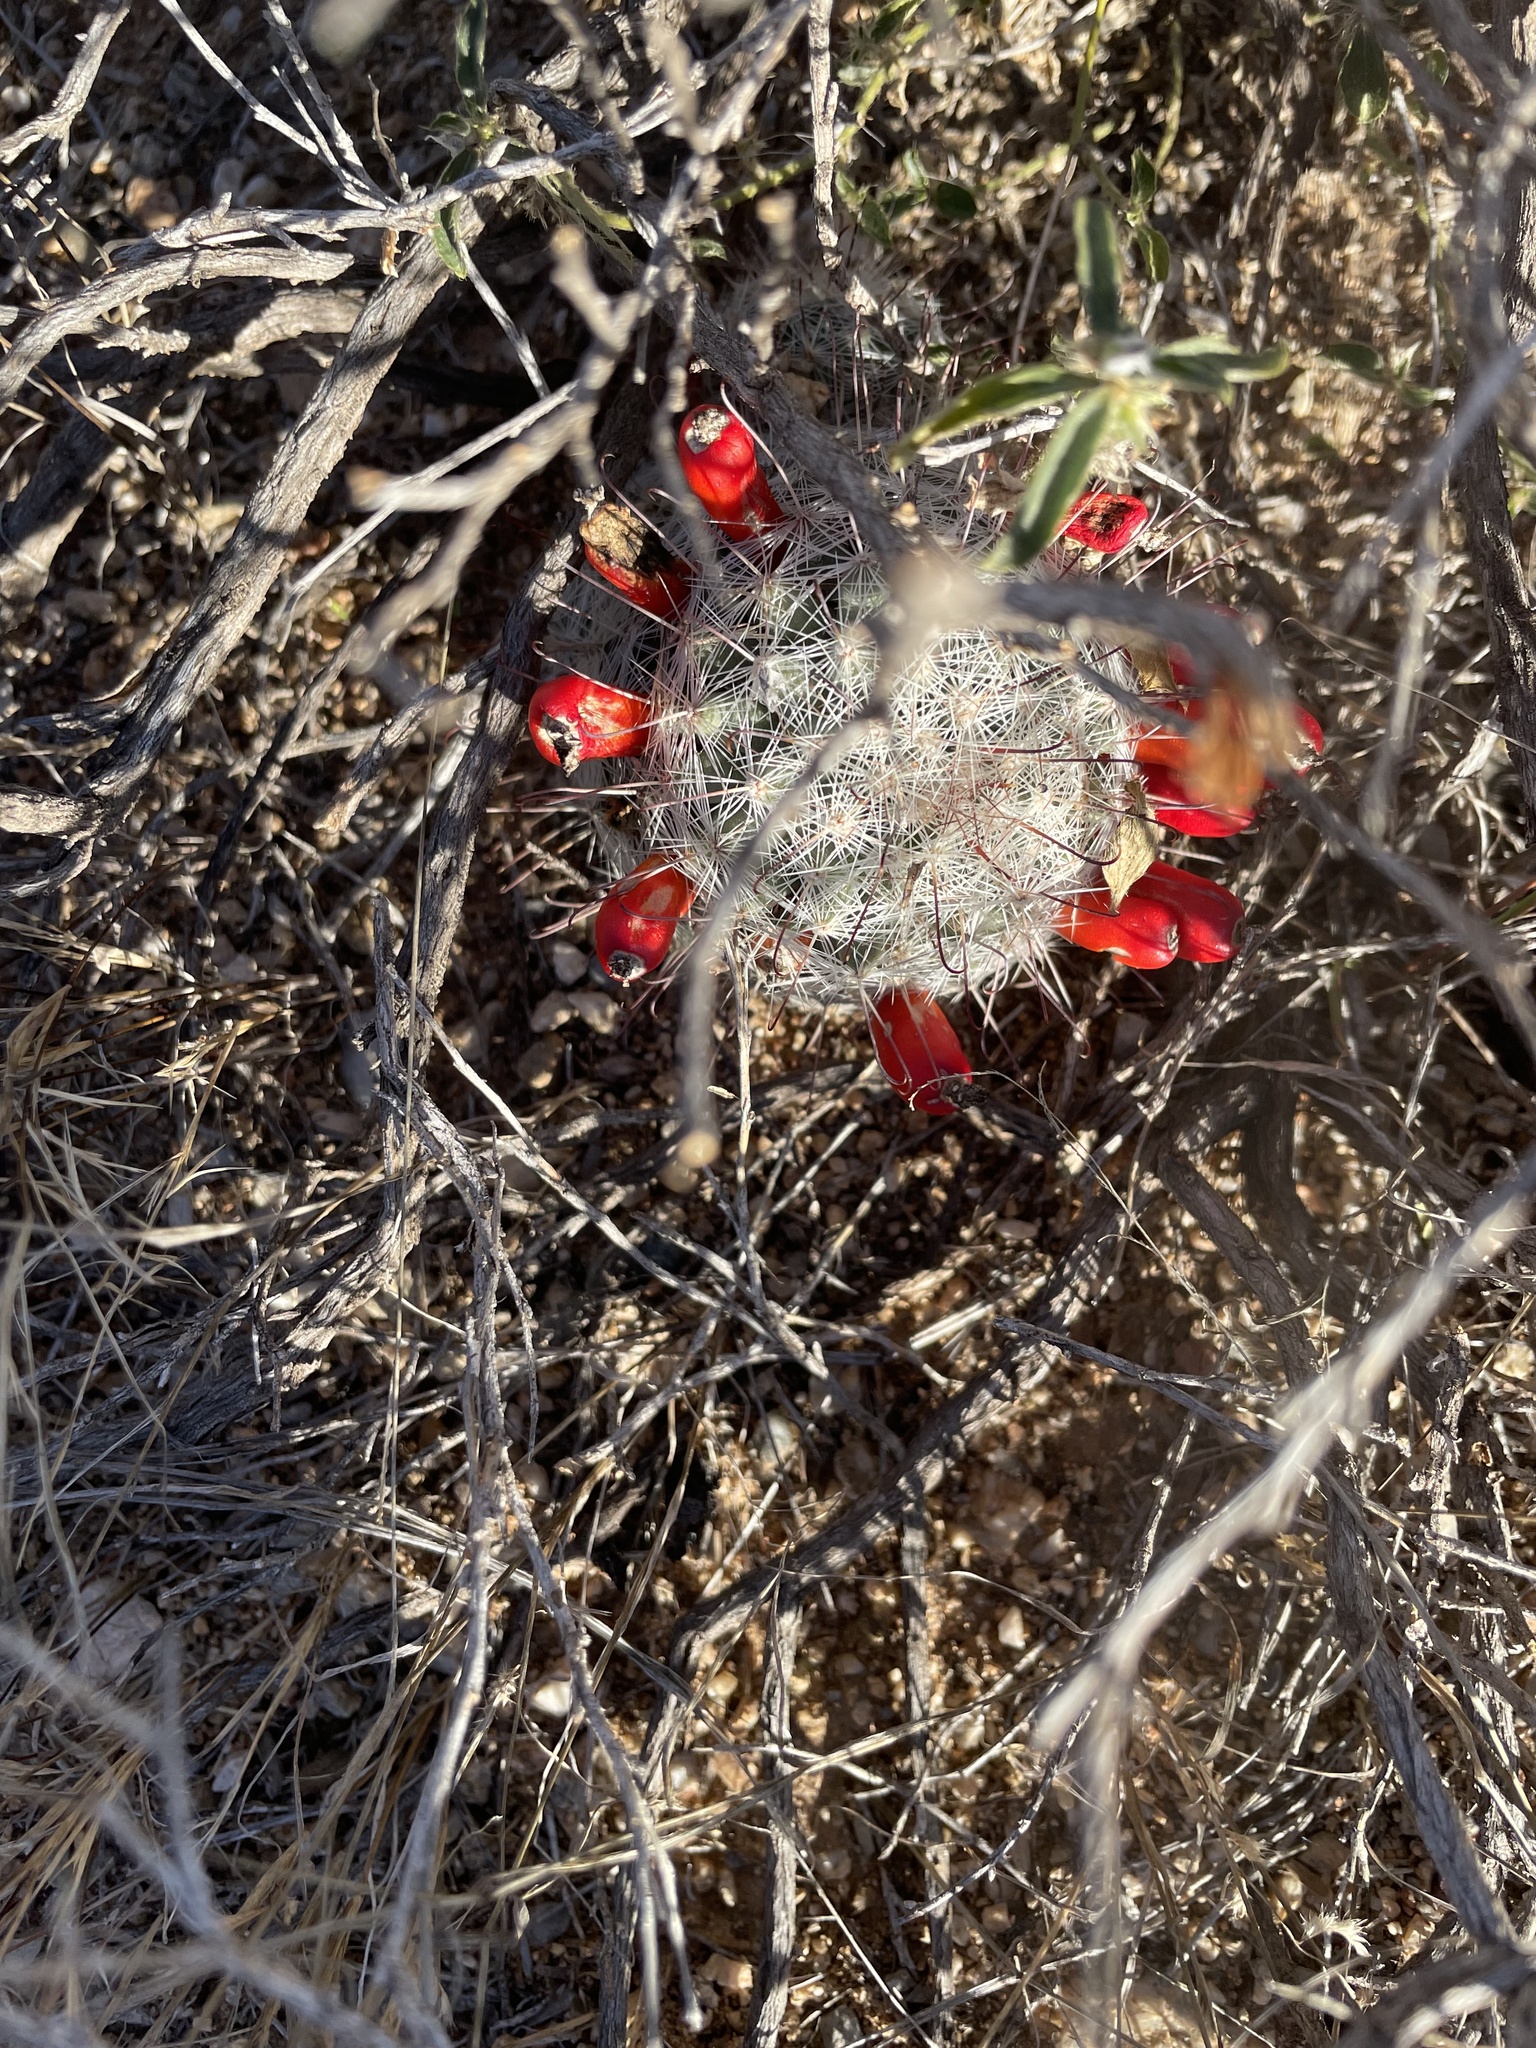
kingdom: Plantae
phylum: Tracheophyta
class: Magnoliopsida
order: Caryophyllales
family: Cactaceae
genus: Cochemiea
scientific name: Cochemiea grahamii
